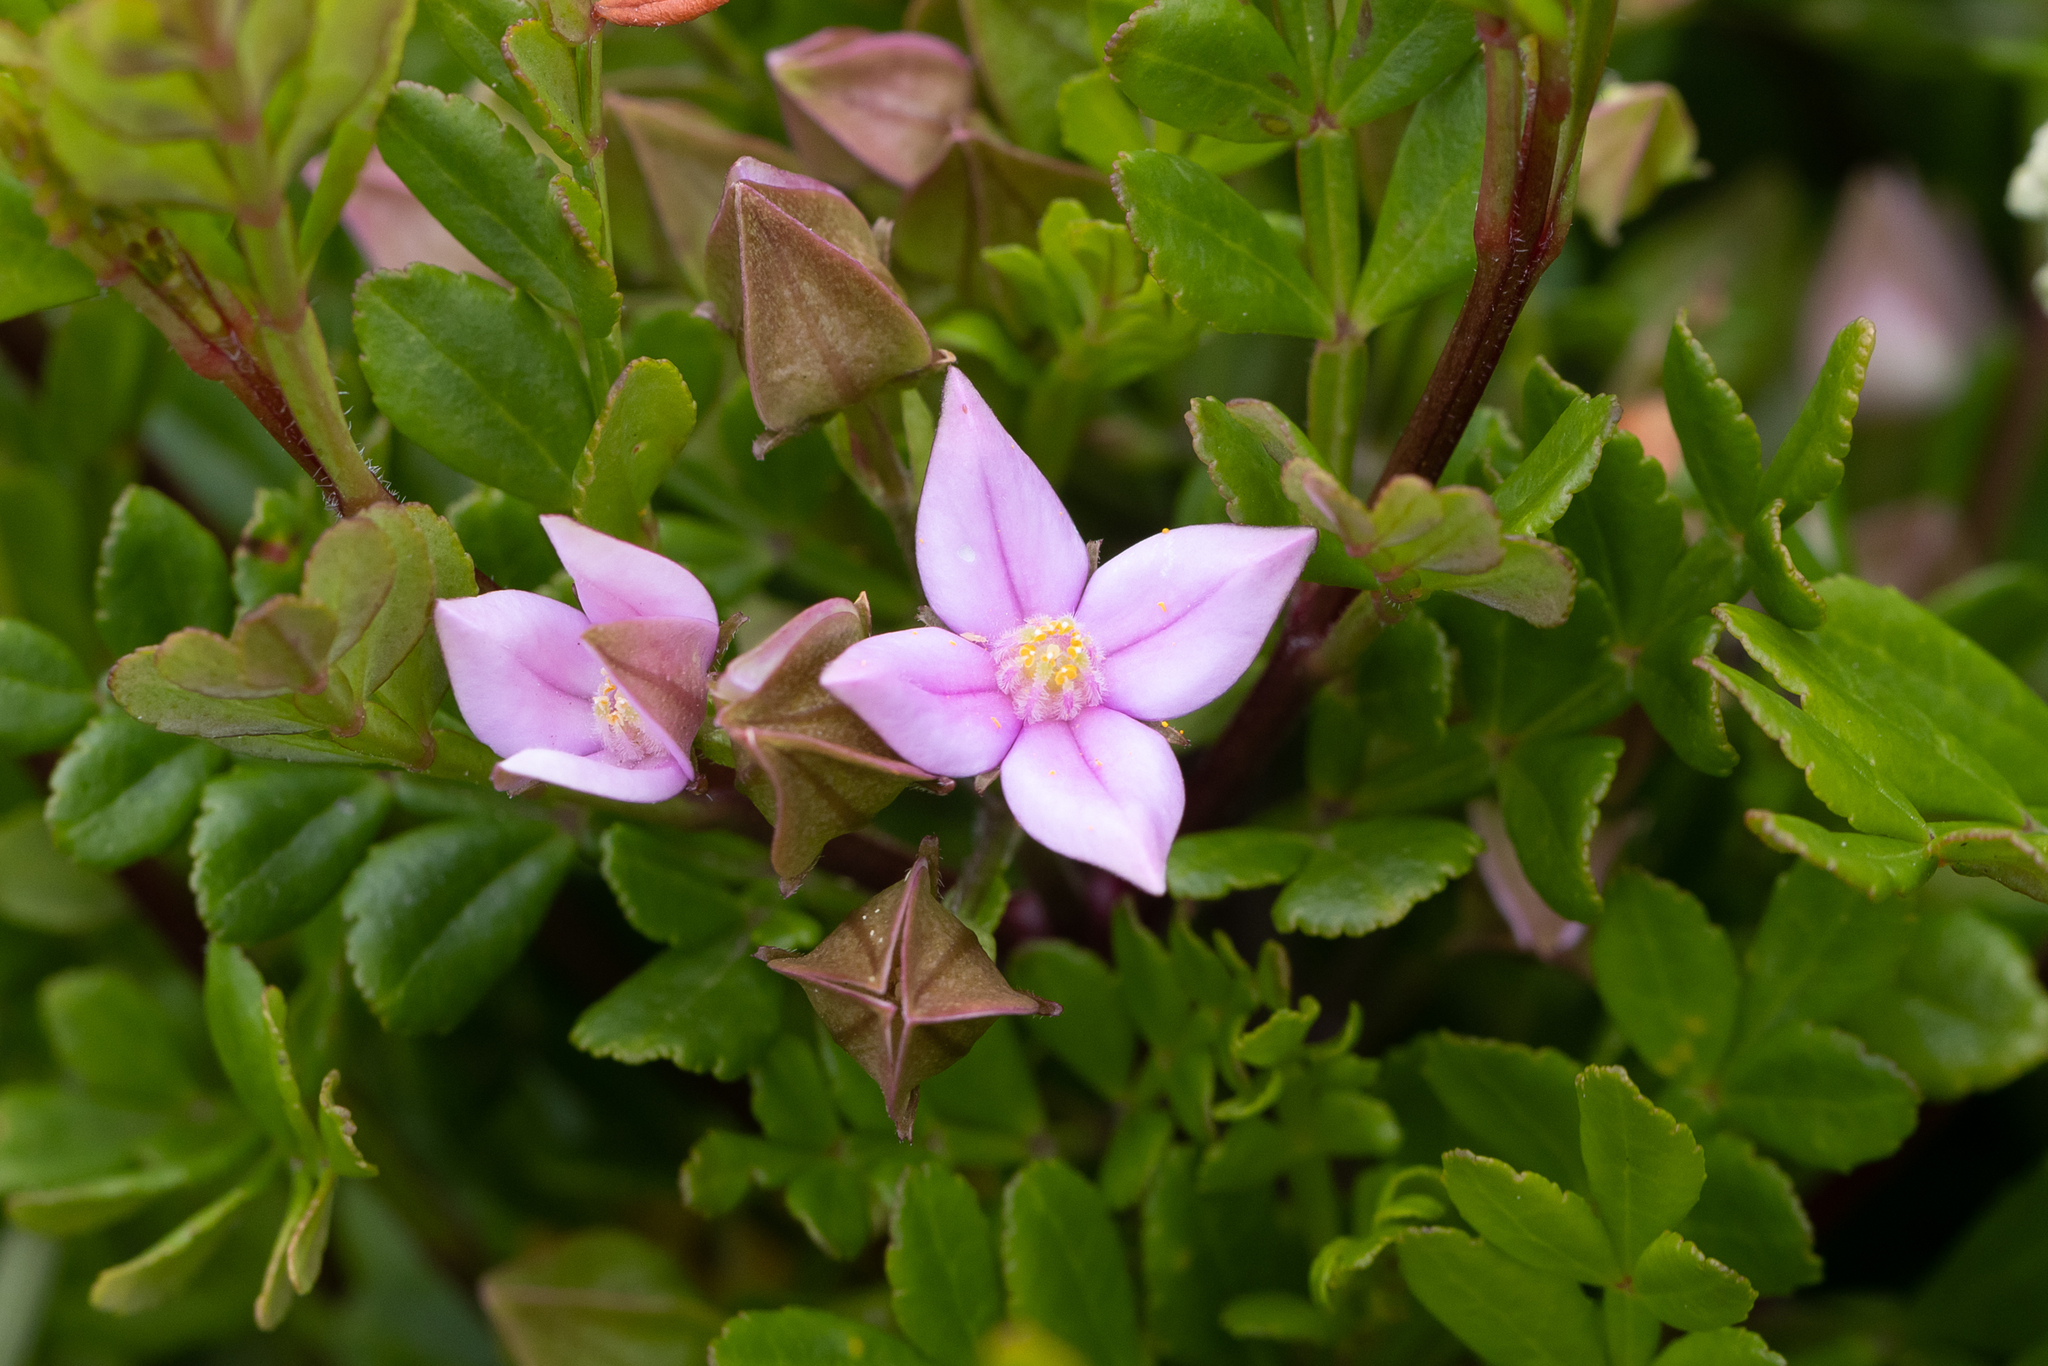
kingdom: Plantae
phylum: Tracheophyta
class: Magnoliopsida
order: Sapindales
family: Rutaceae
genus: Boronia
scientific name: Boronia alata
